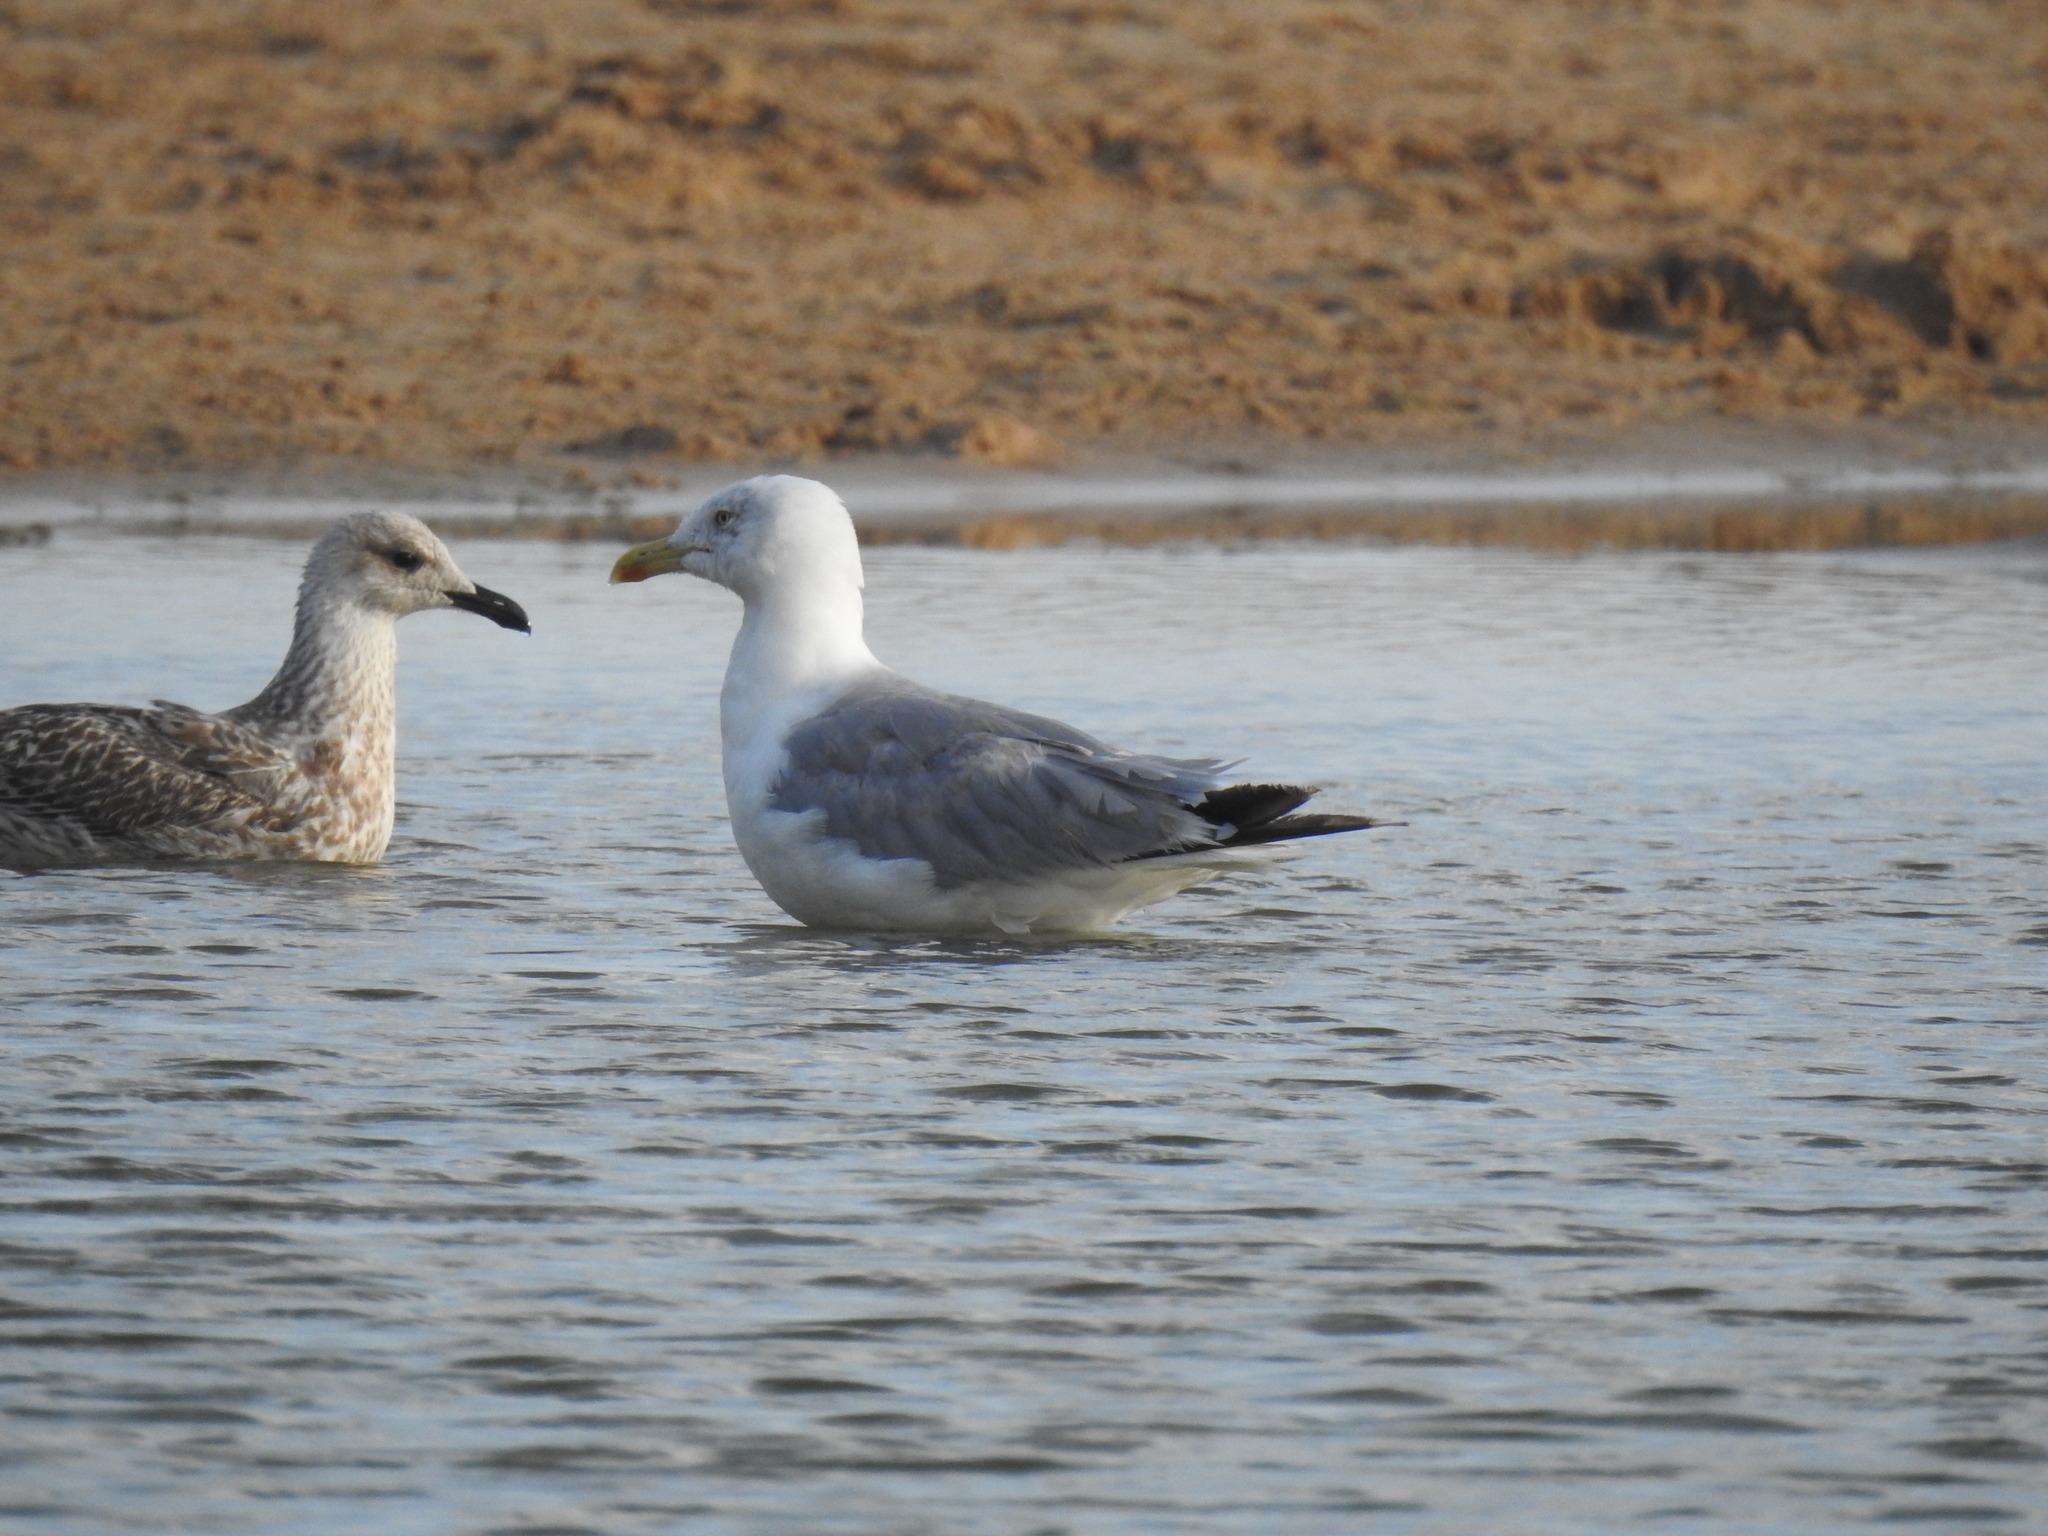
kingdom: Animalia
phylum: Chordata
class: Aves
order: Charadriiformes
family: Laridae
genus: Larus
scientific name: Larus michahellis
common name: Yellow-legged gull
